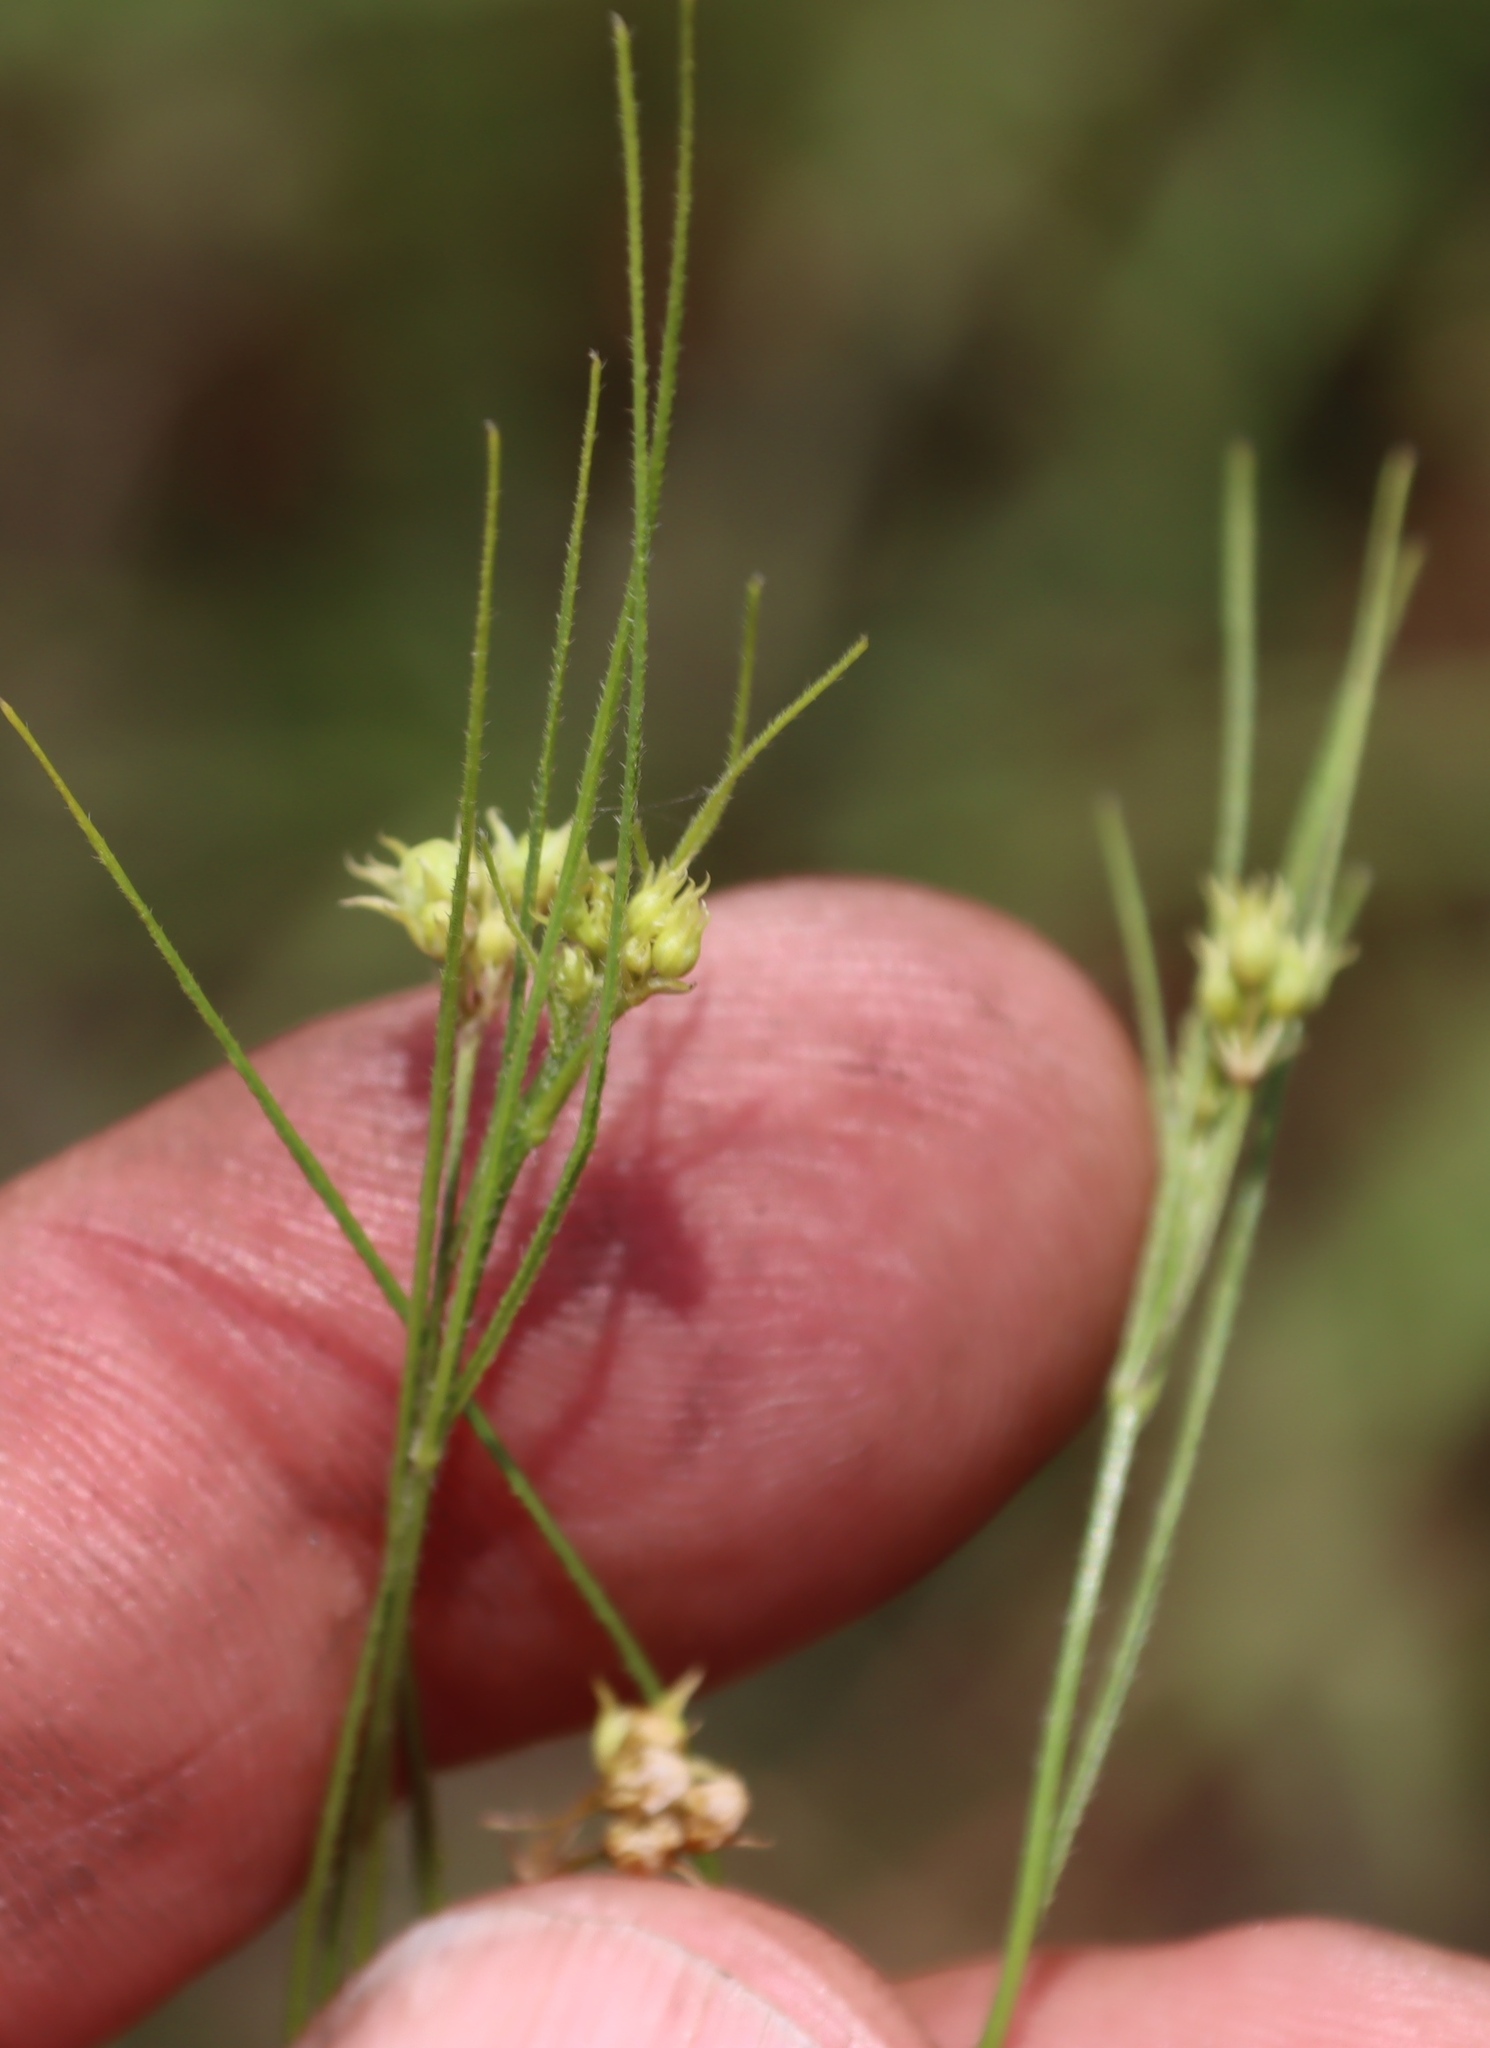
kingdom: Plantae
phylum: Tracheophyta
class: Magnoliopsida
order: Gentianales
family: Apocynaceae
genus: Sisyranthus
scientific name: Sisyranthus imberbis
